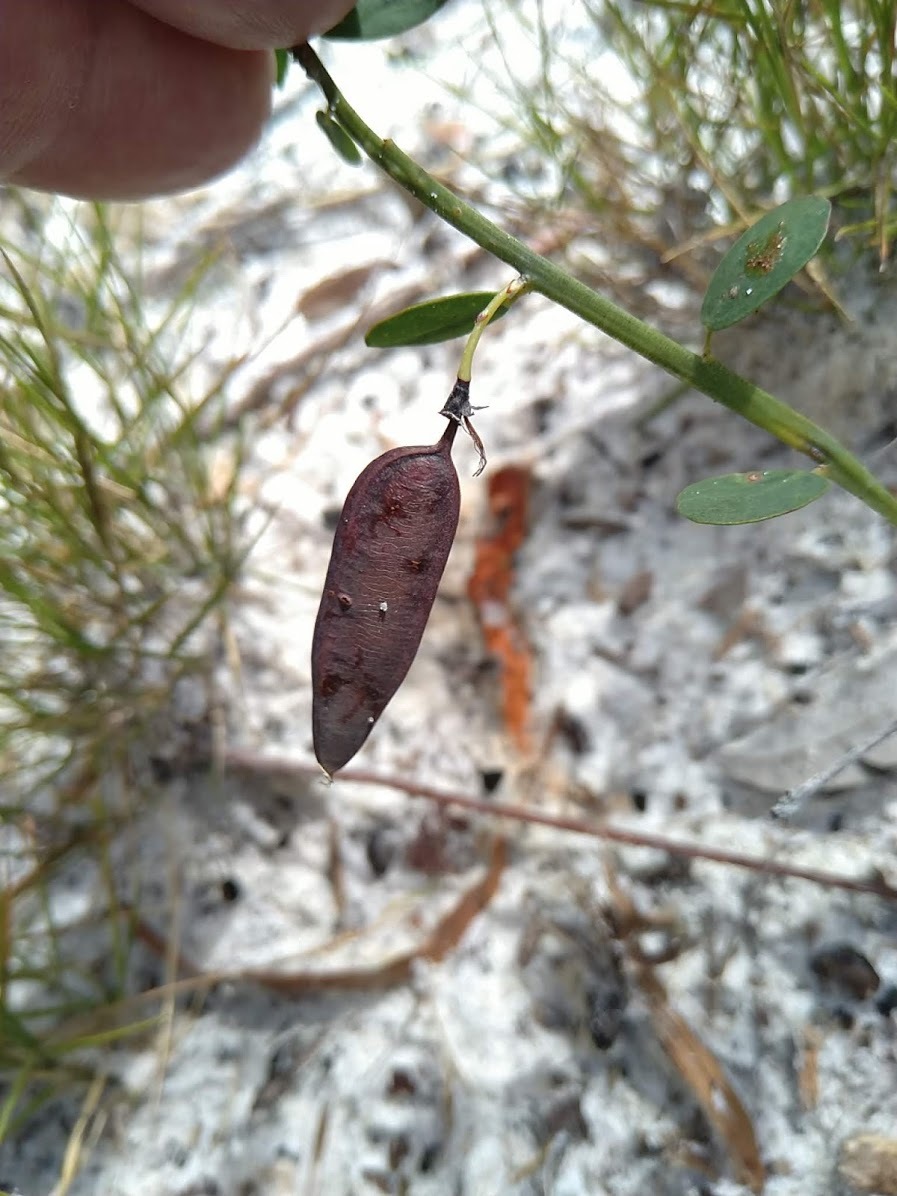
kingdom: Plantae
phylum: Tracheophyta
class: Magnoliopsida
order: Fabales
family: Fabaceae
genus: Bossiaea
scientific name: Bossiaea heterophylla
